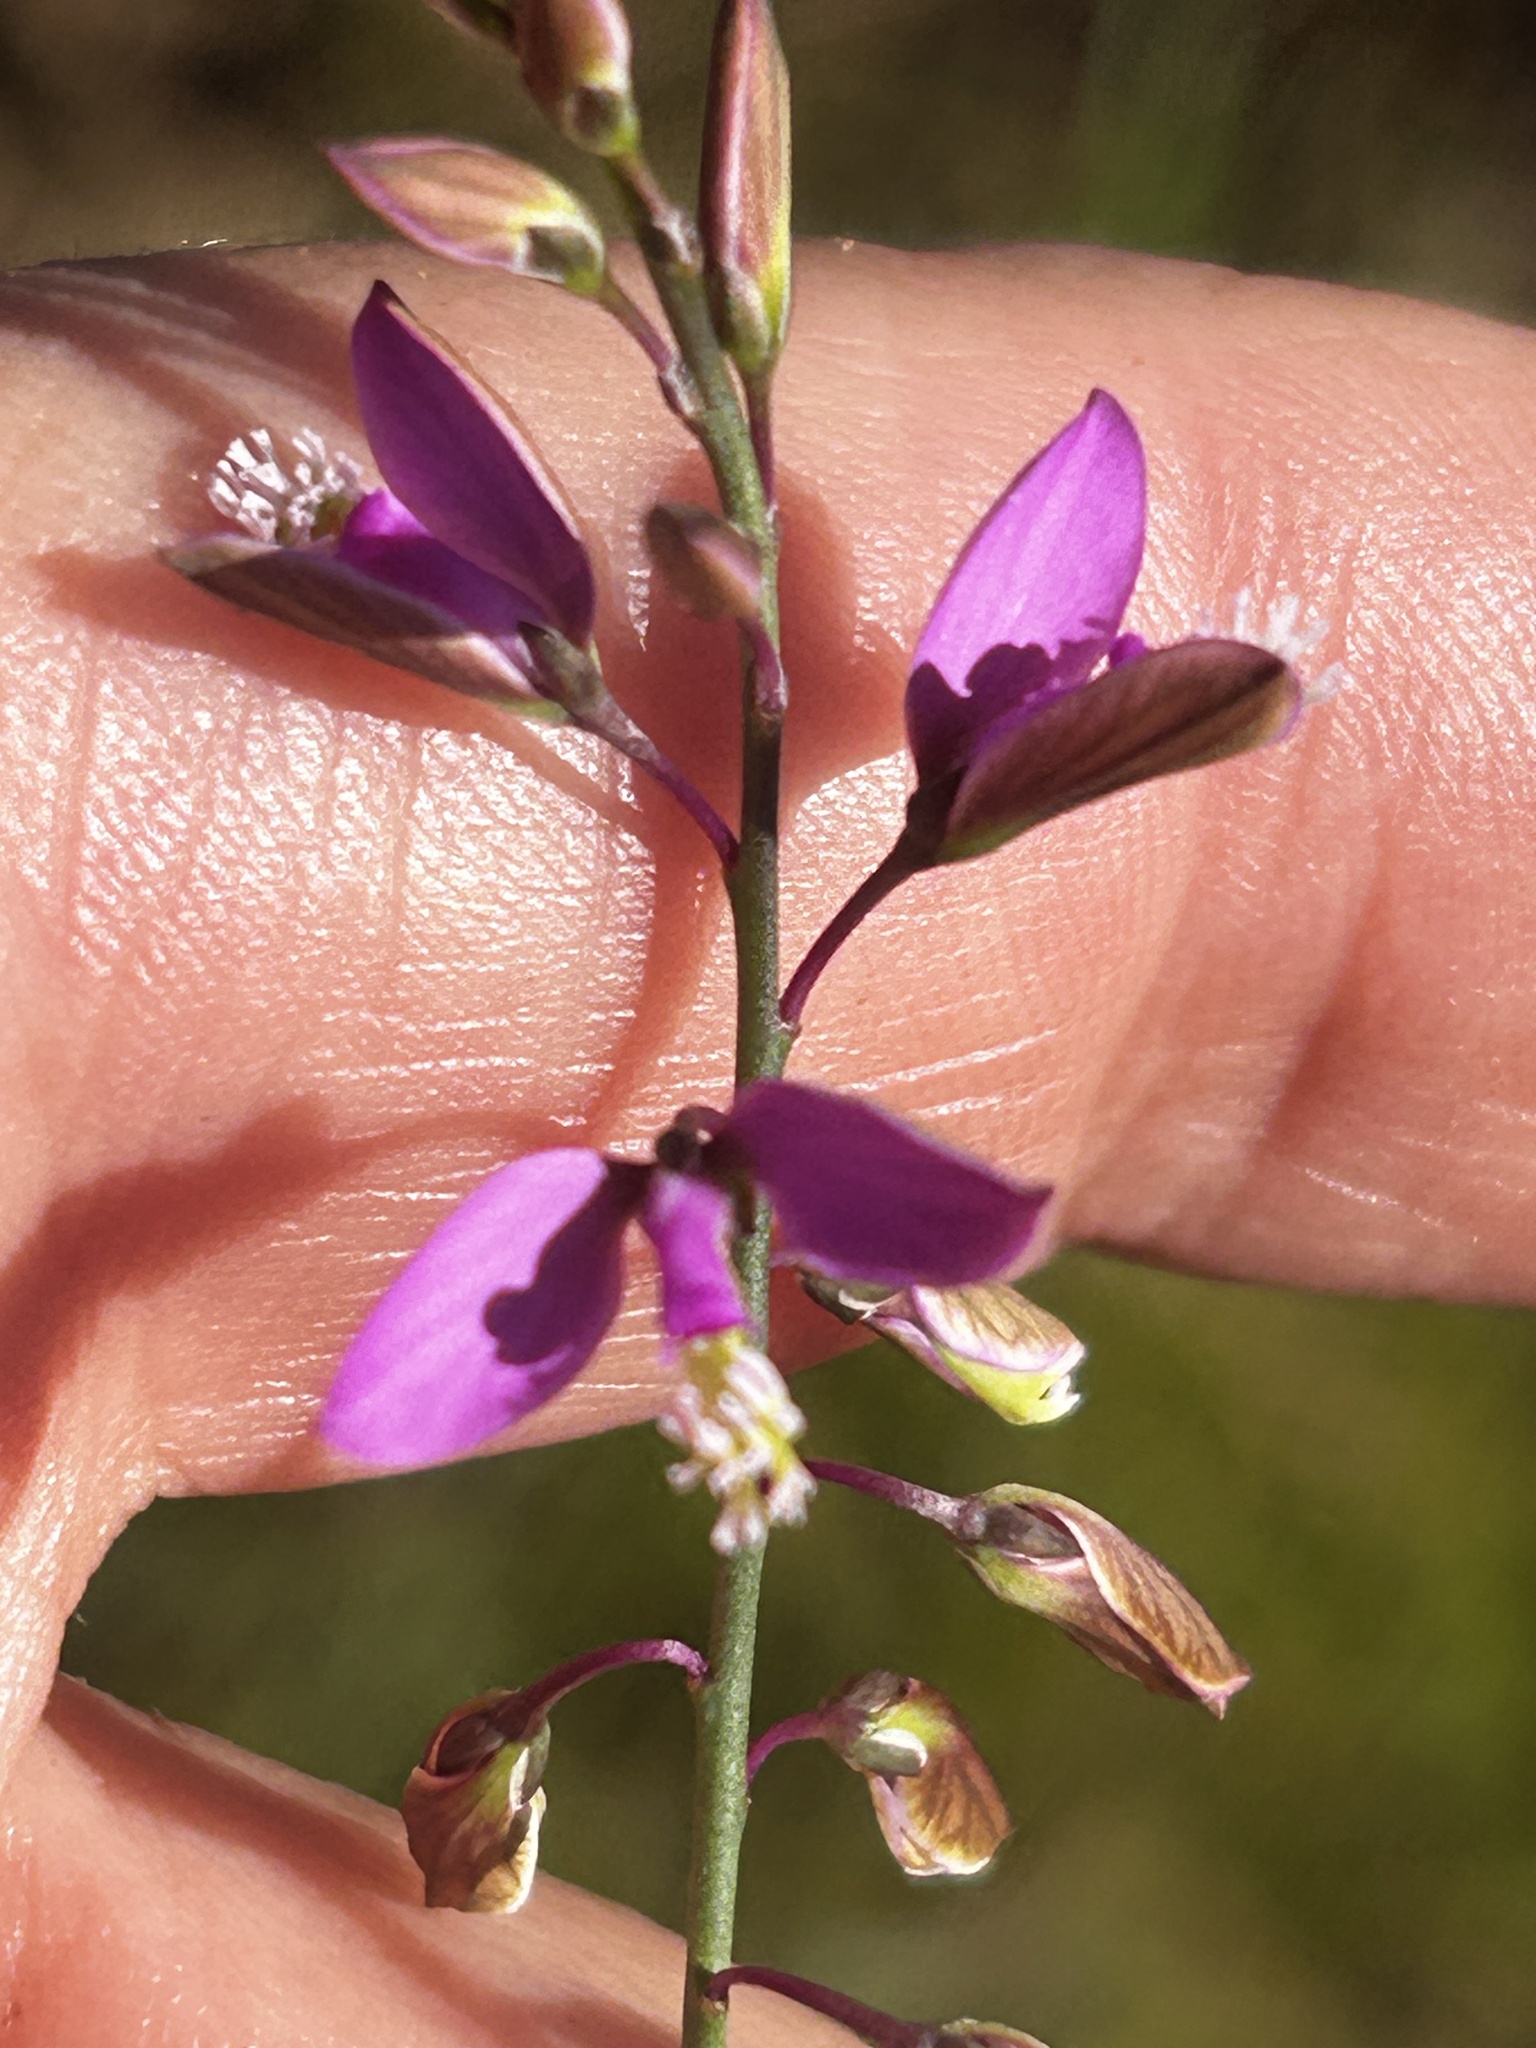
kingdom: Plantae
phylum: Tracheophyta
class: Magnoliopsida
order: Fabales
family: Polygalaceae
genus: Polygala
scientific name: Polygala garcini
